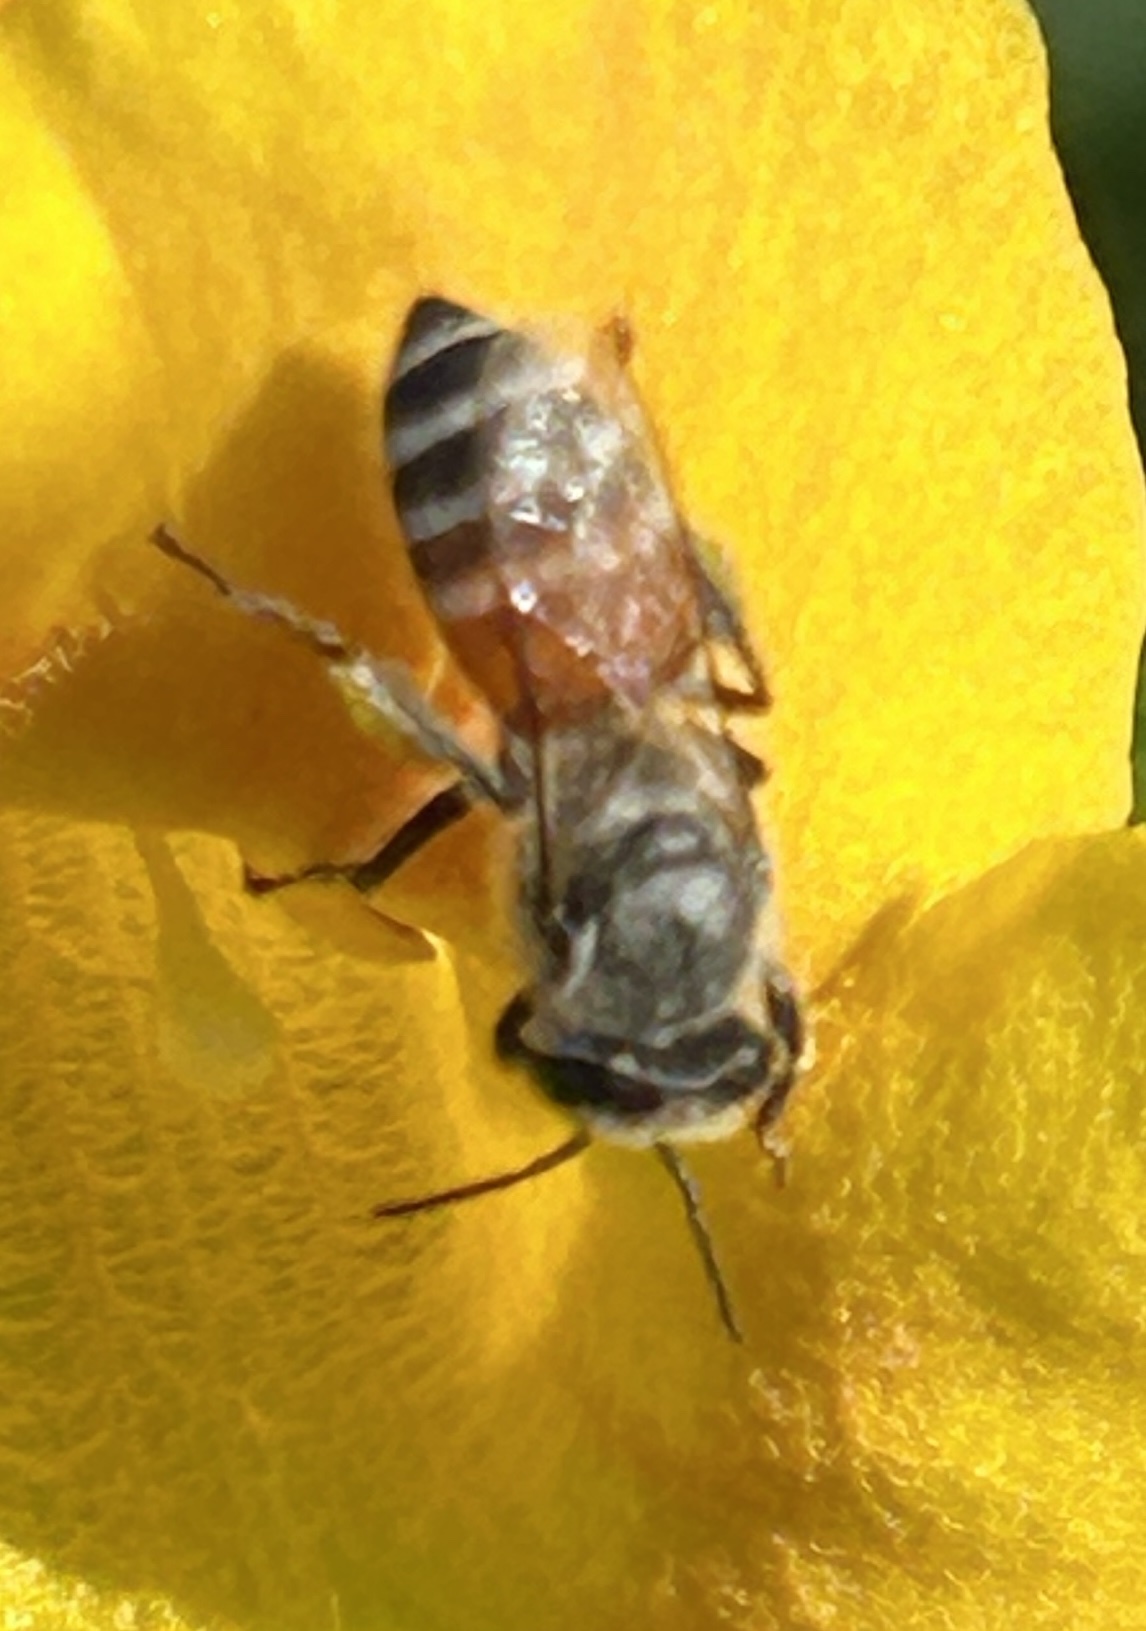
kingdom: Animalia
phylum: Arthropoda
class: Insecta
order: Hymenoptera
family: Apidae
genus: Apis
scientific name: Apis florea
